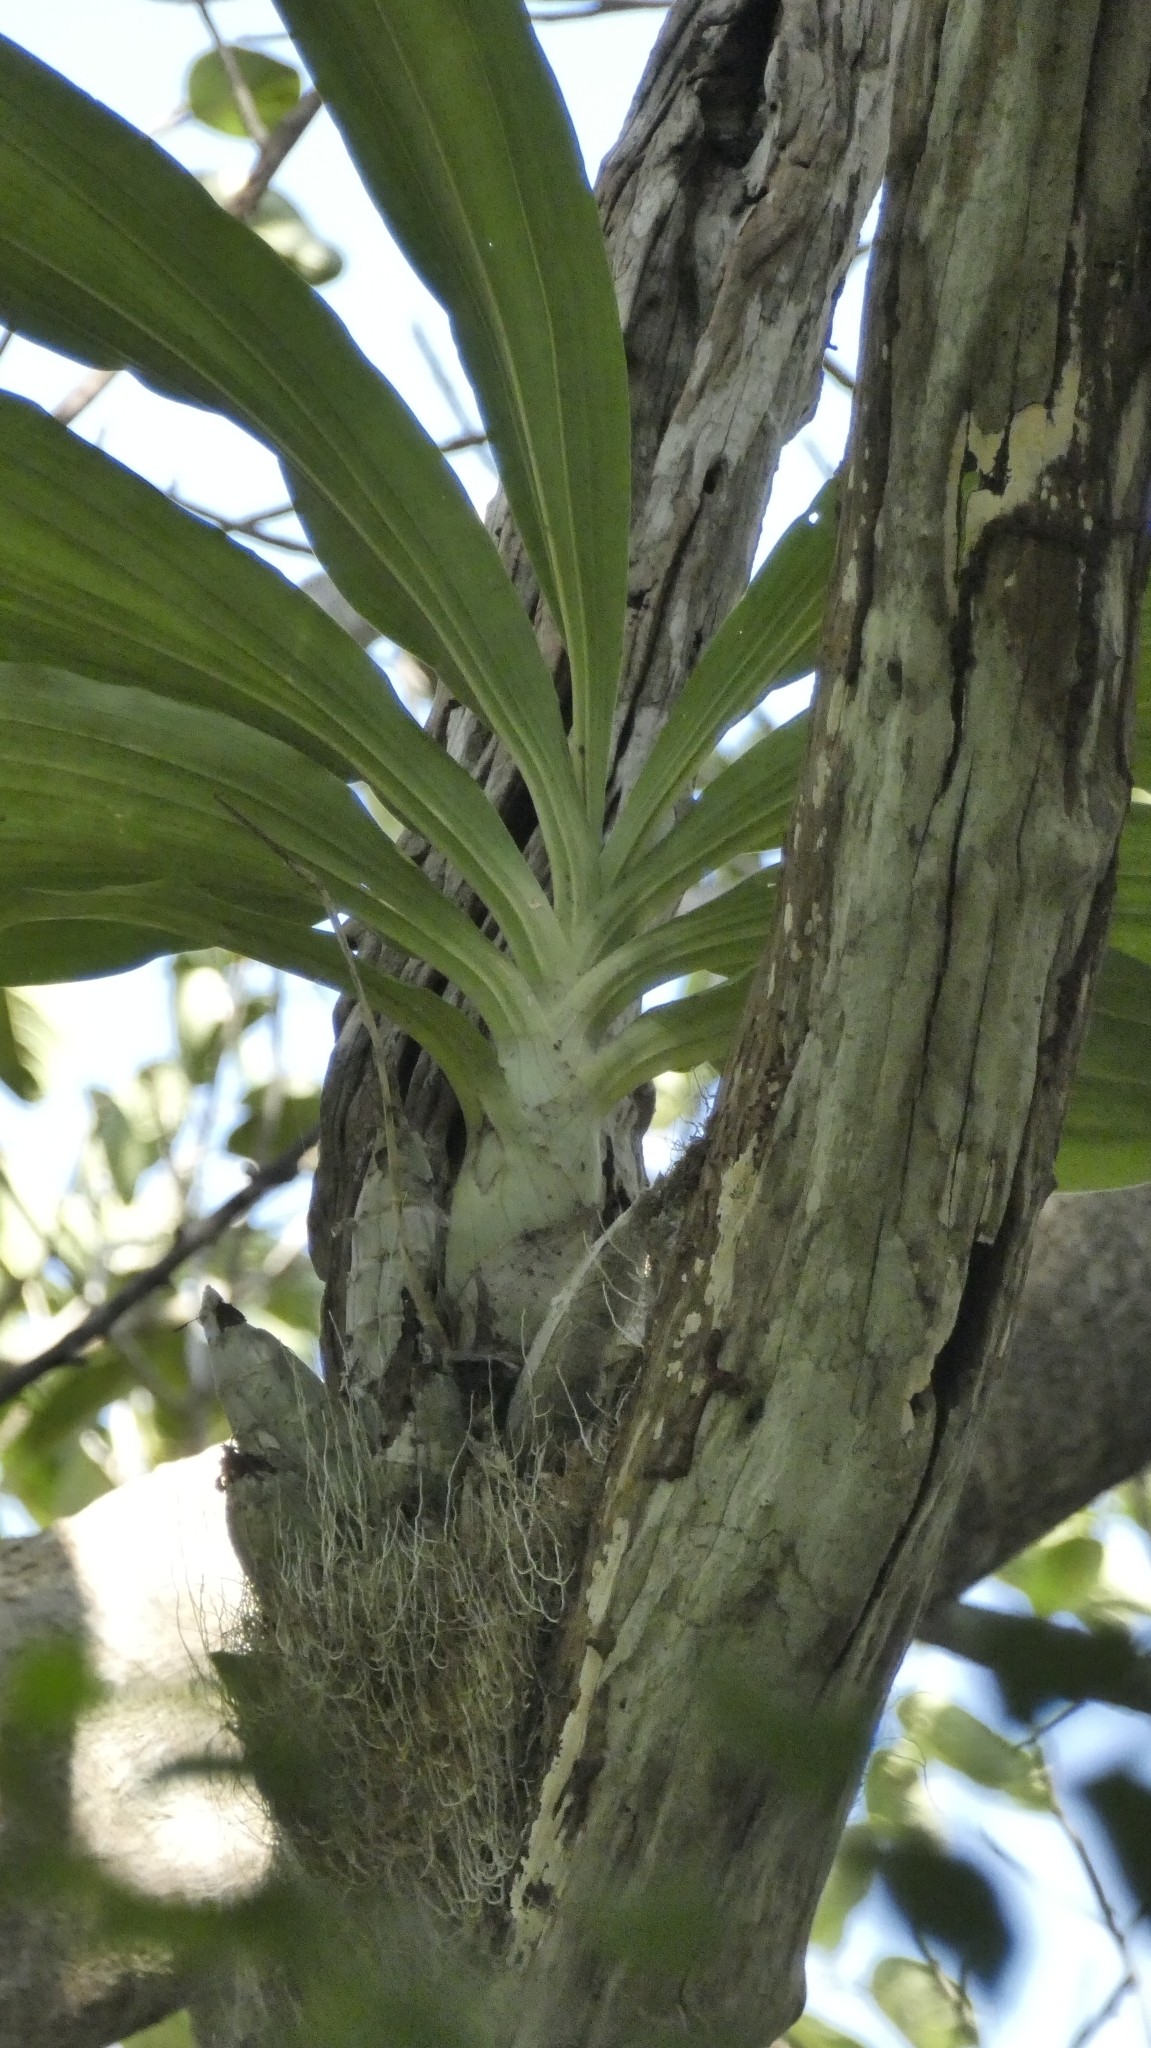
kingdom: Plantae
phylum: Tracheophyta
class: Liliopsida
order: Asparagales
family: Orchidaceae
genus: Catasetum
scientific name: Catasetum integerrimum
